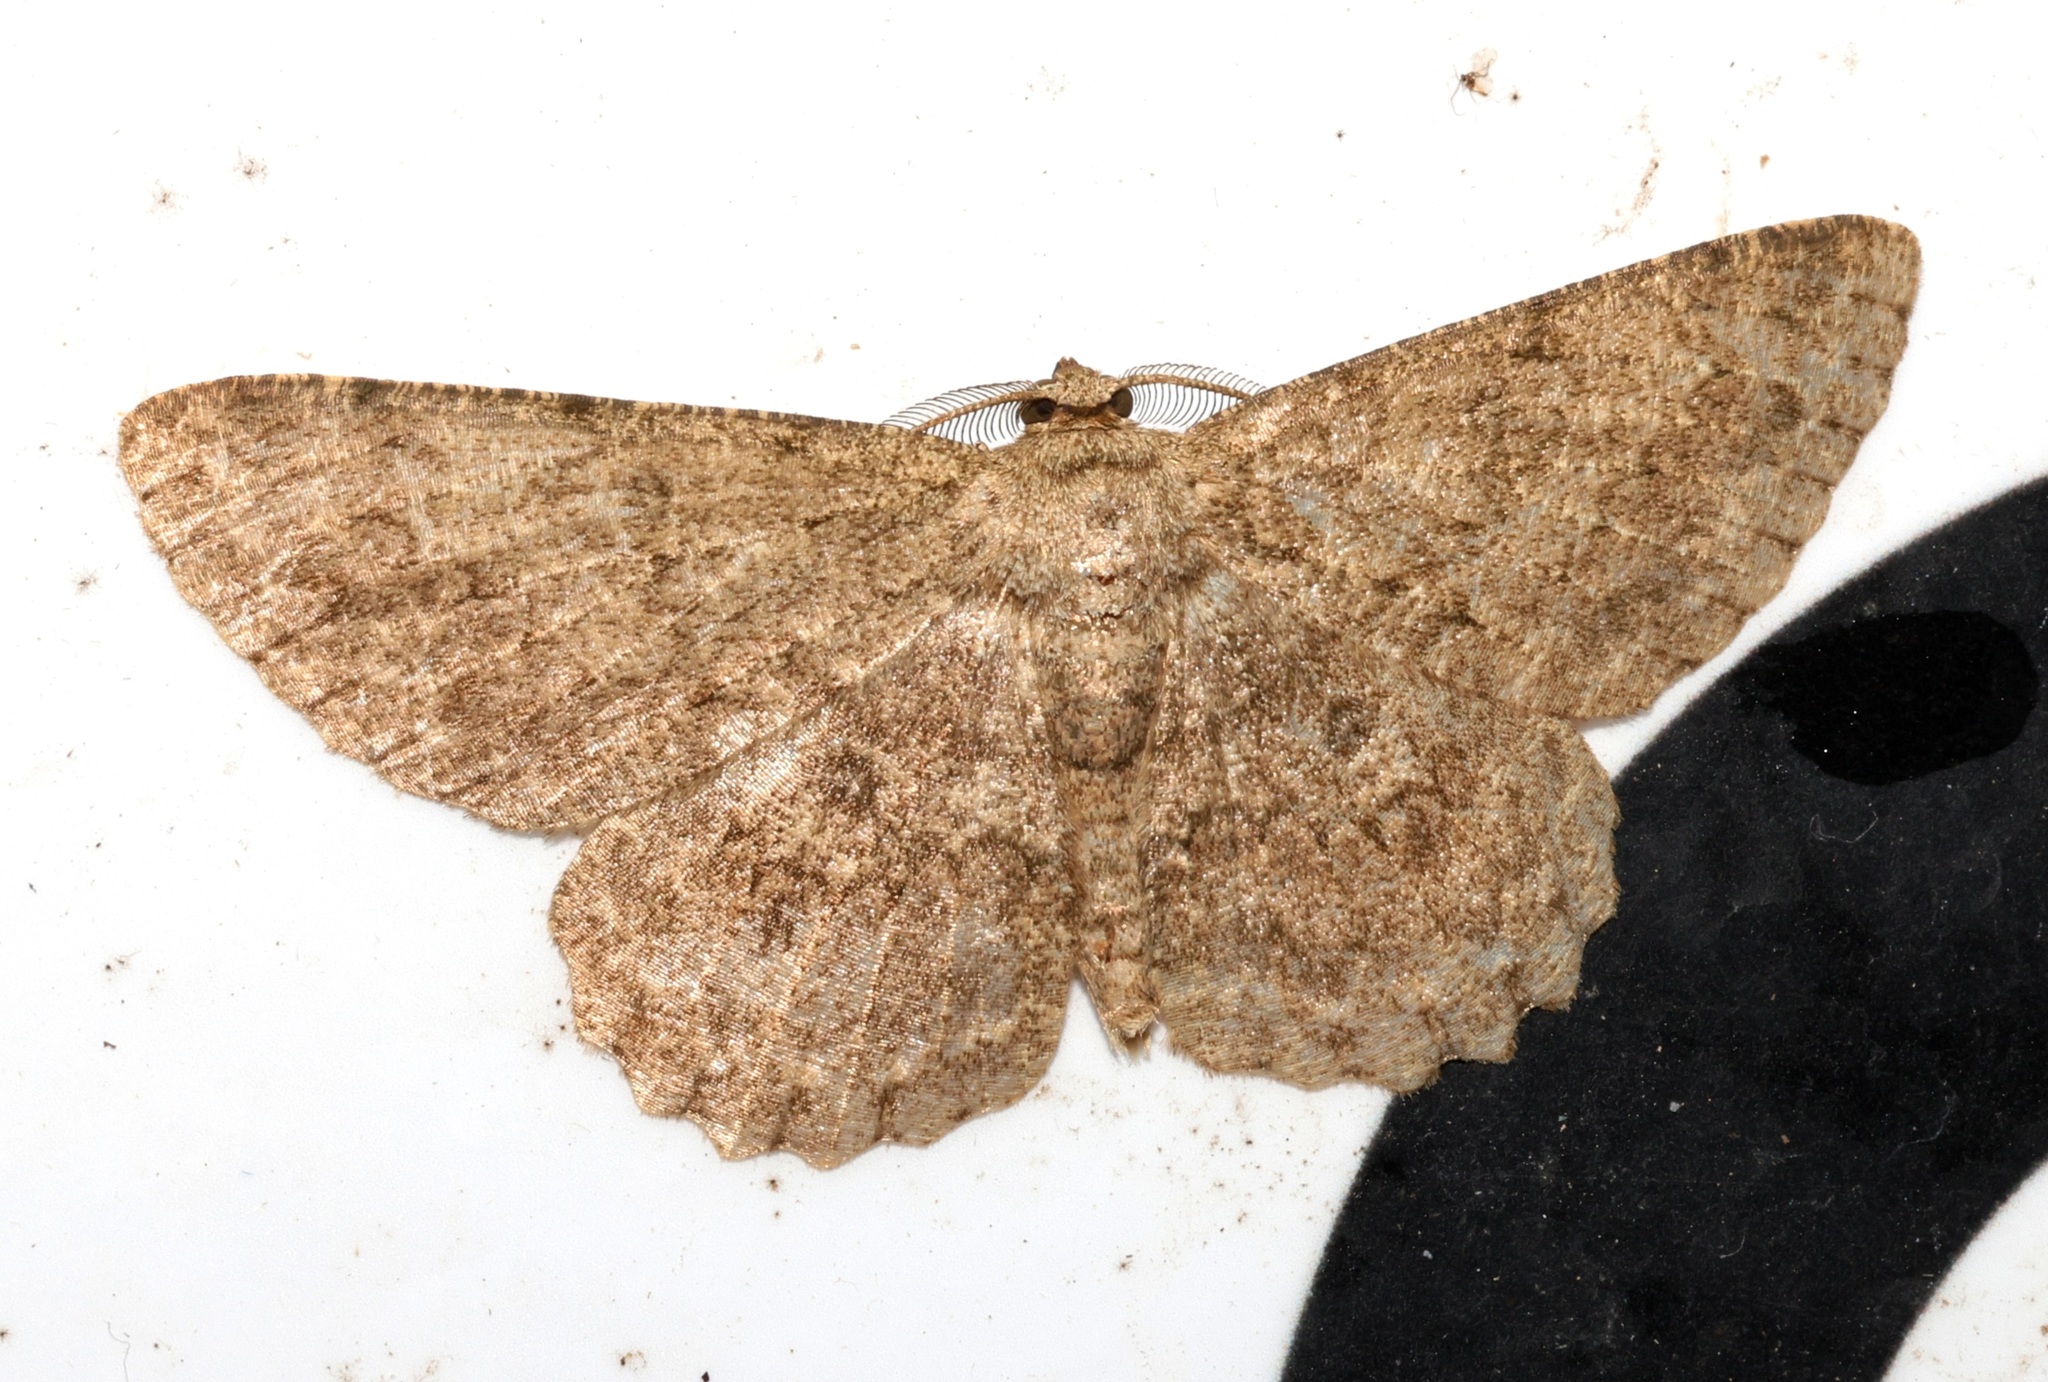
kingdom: Animalia
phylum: Arthropoda
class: Insecta
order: Lepidoptera
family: Geometridae
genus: Hypomecis
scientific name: Hypomecis
